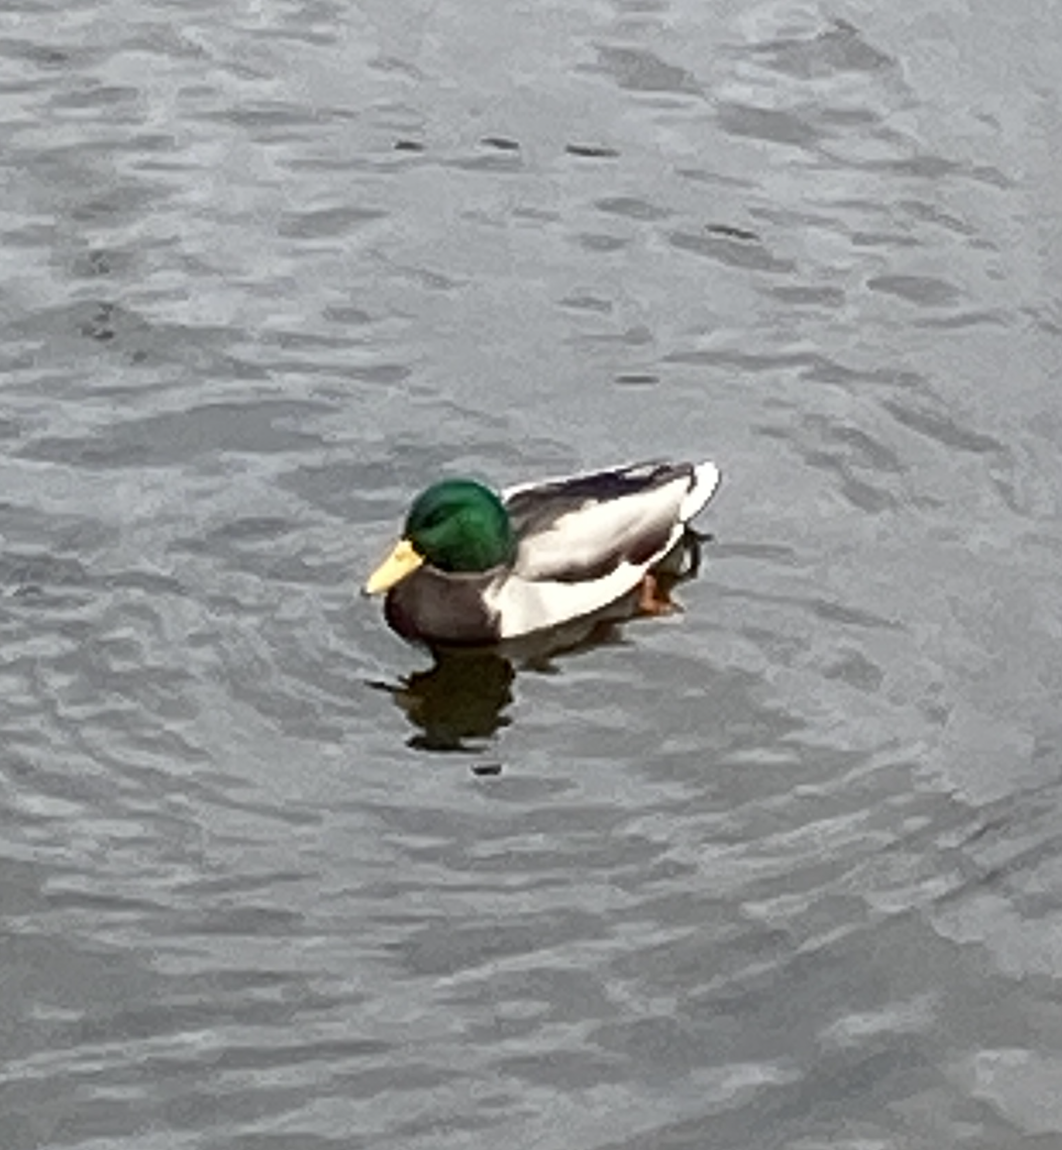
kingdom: Animalia
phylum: Chordata
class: Aves
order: Anseriformes
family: Anatidae
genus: Anas
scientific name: Anas platyrhynchos
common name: Mallard
